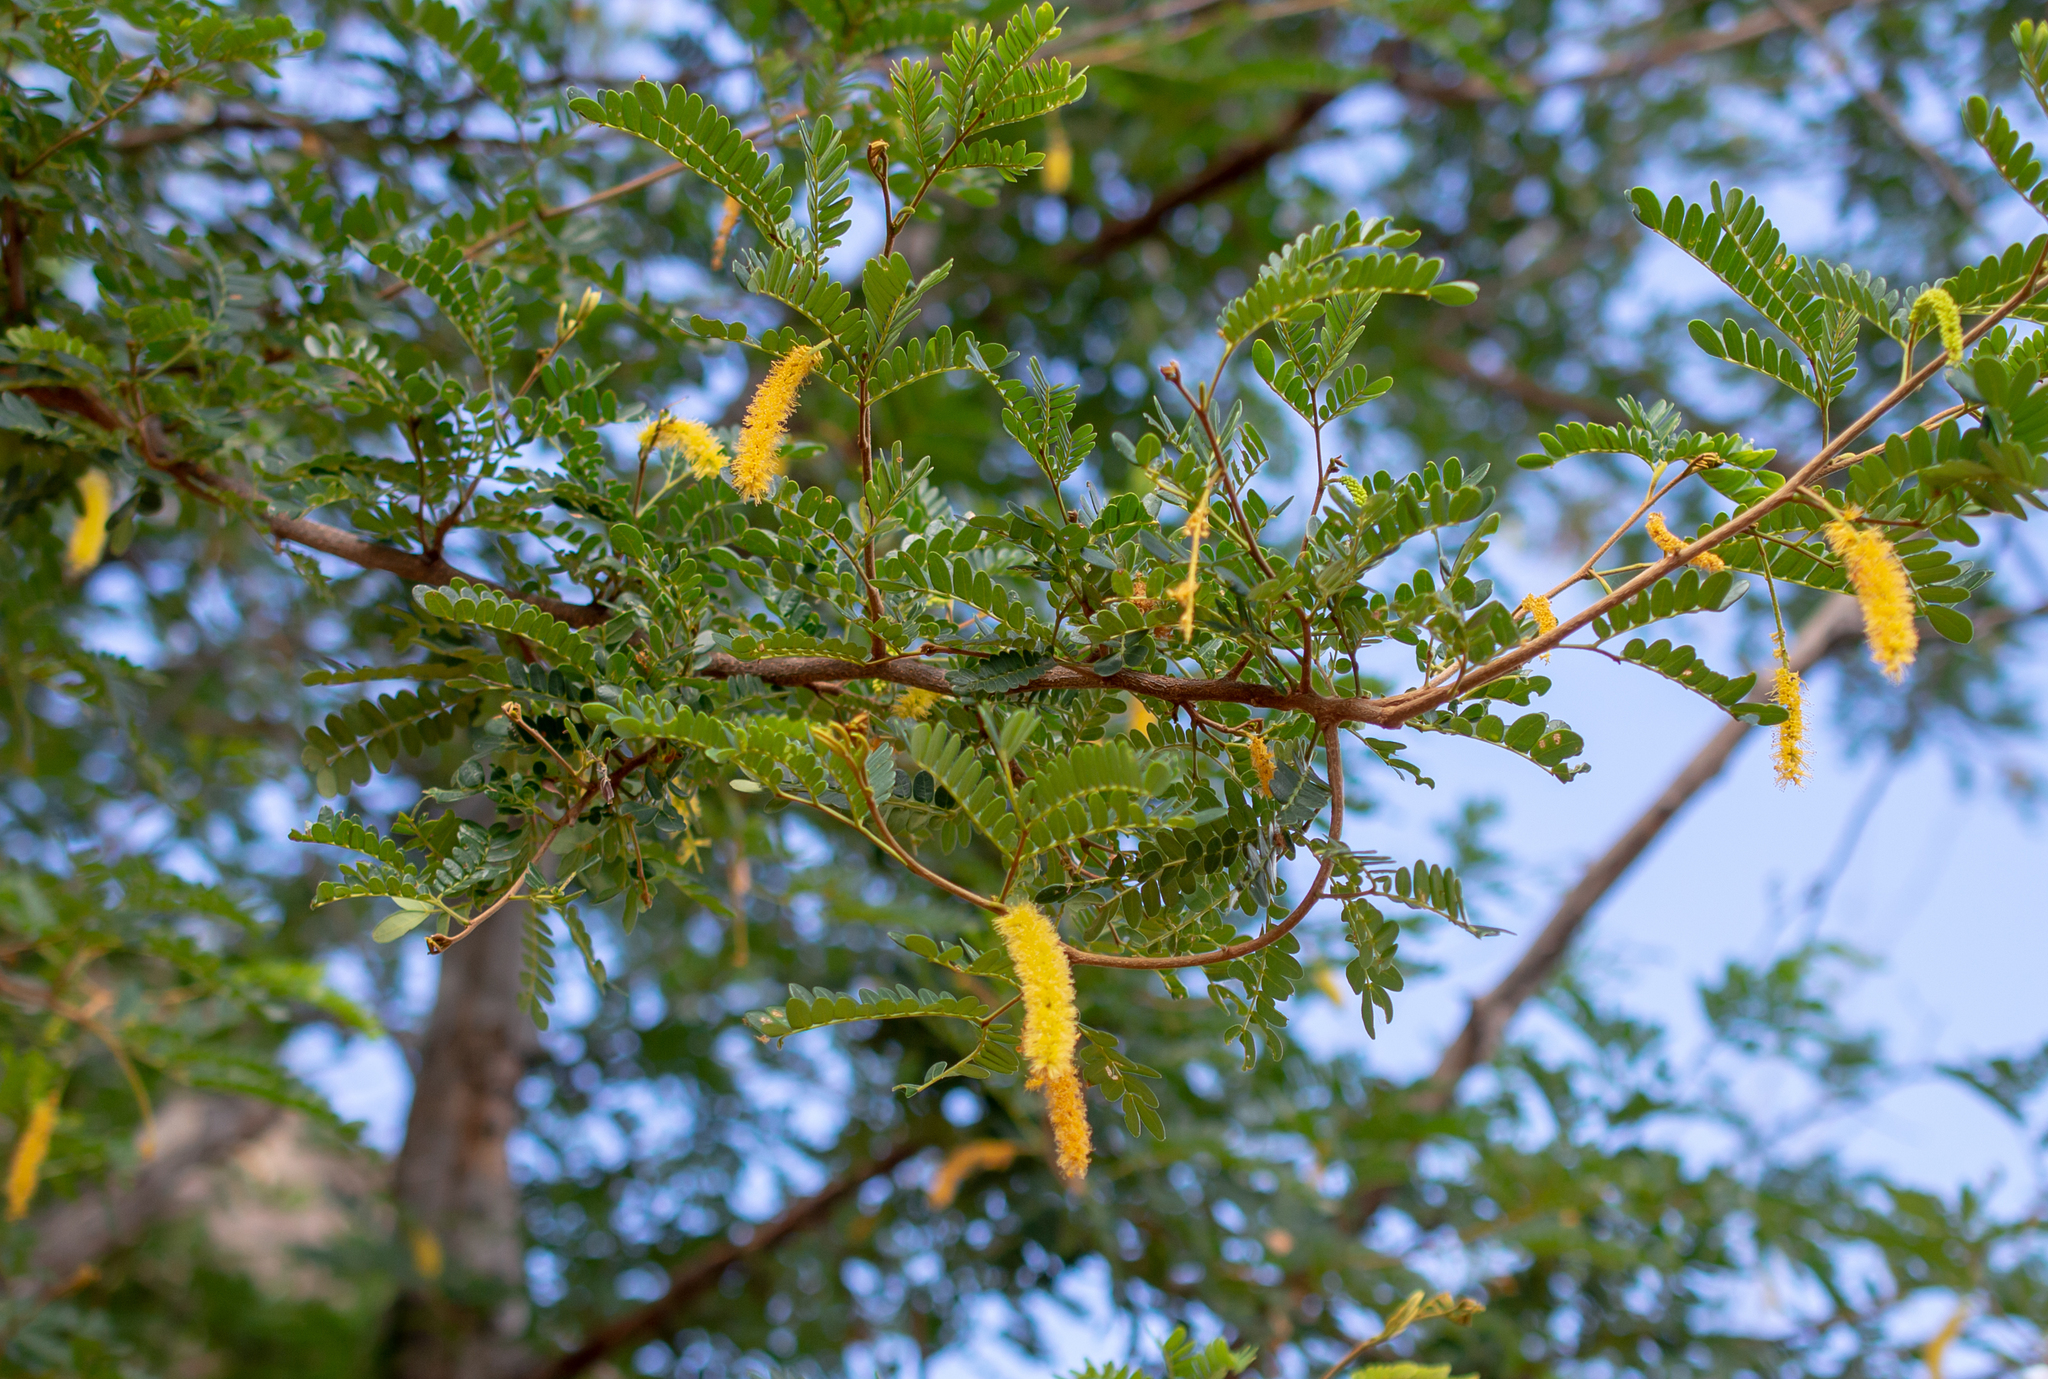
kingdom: Plantae
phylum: Tracheophyta
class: Magnoliopsida
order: Fabales
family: Fabaceae
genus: Pityrocarpa
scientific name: Pityrocarpa moniliformis
